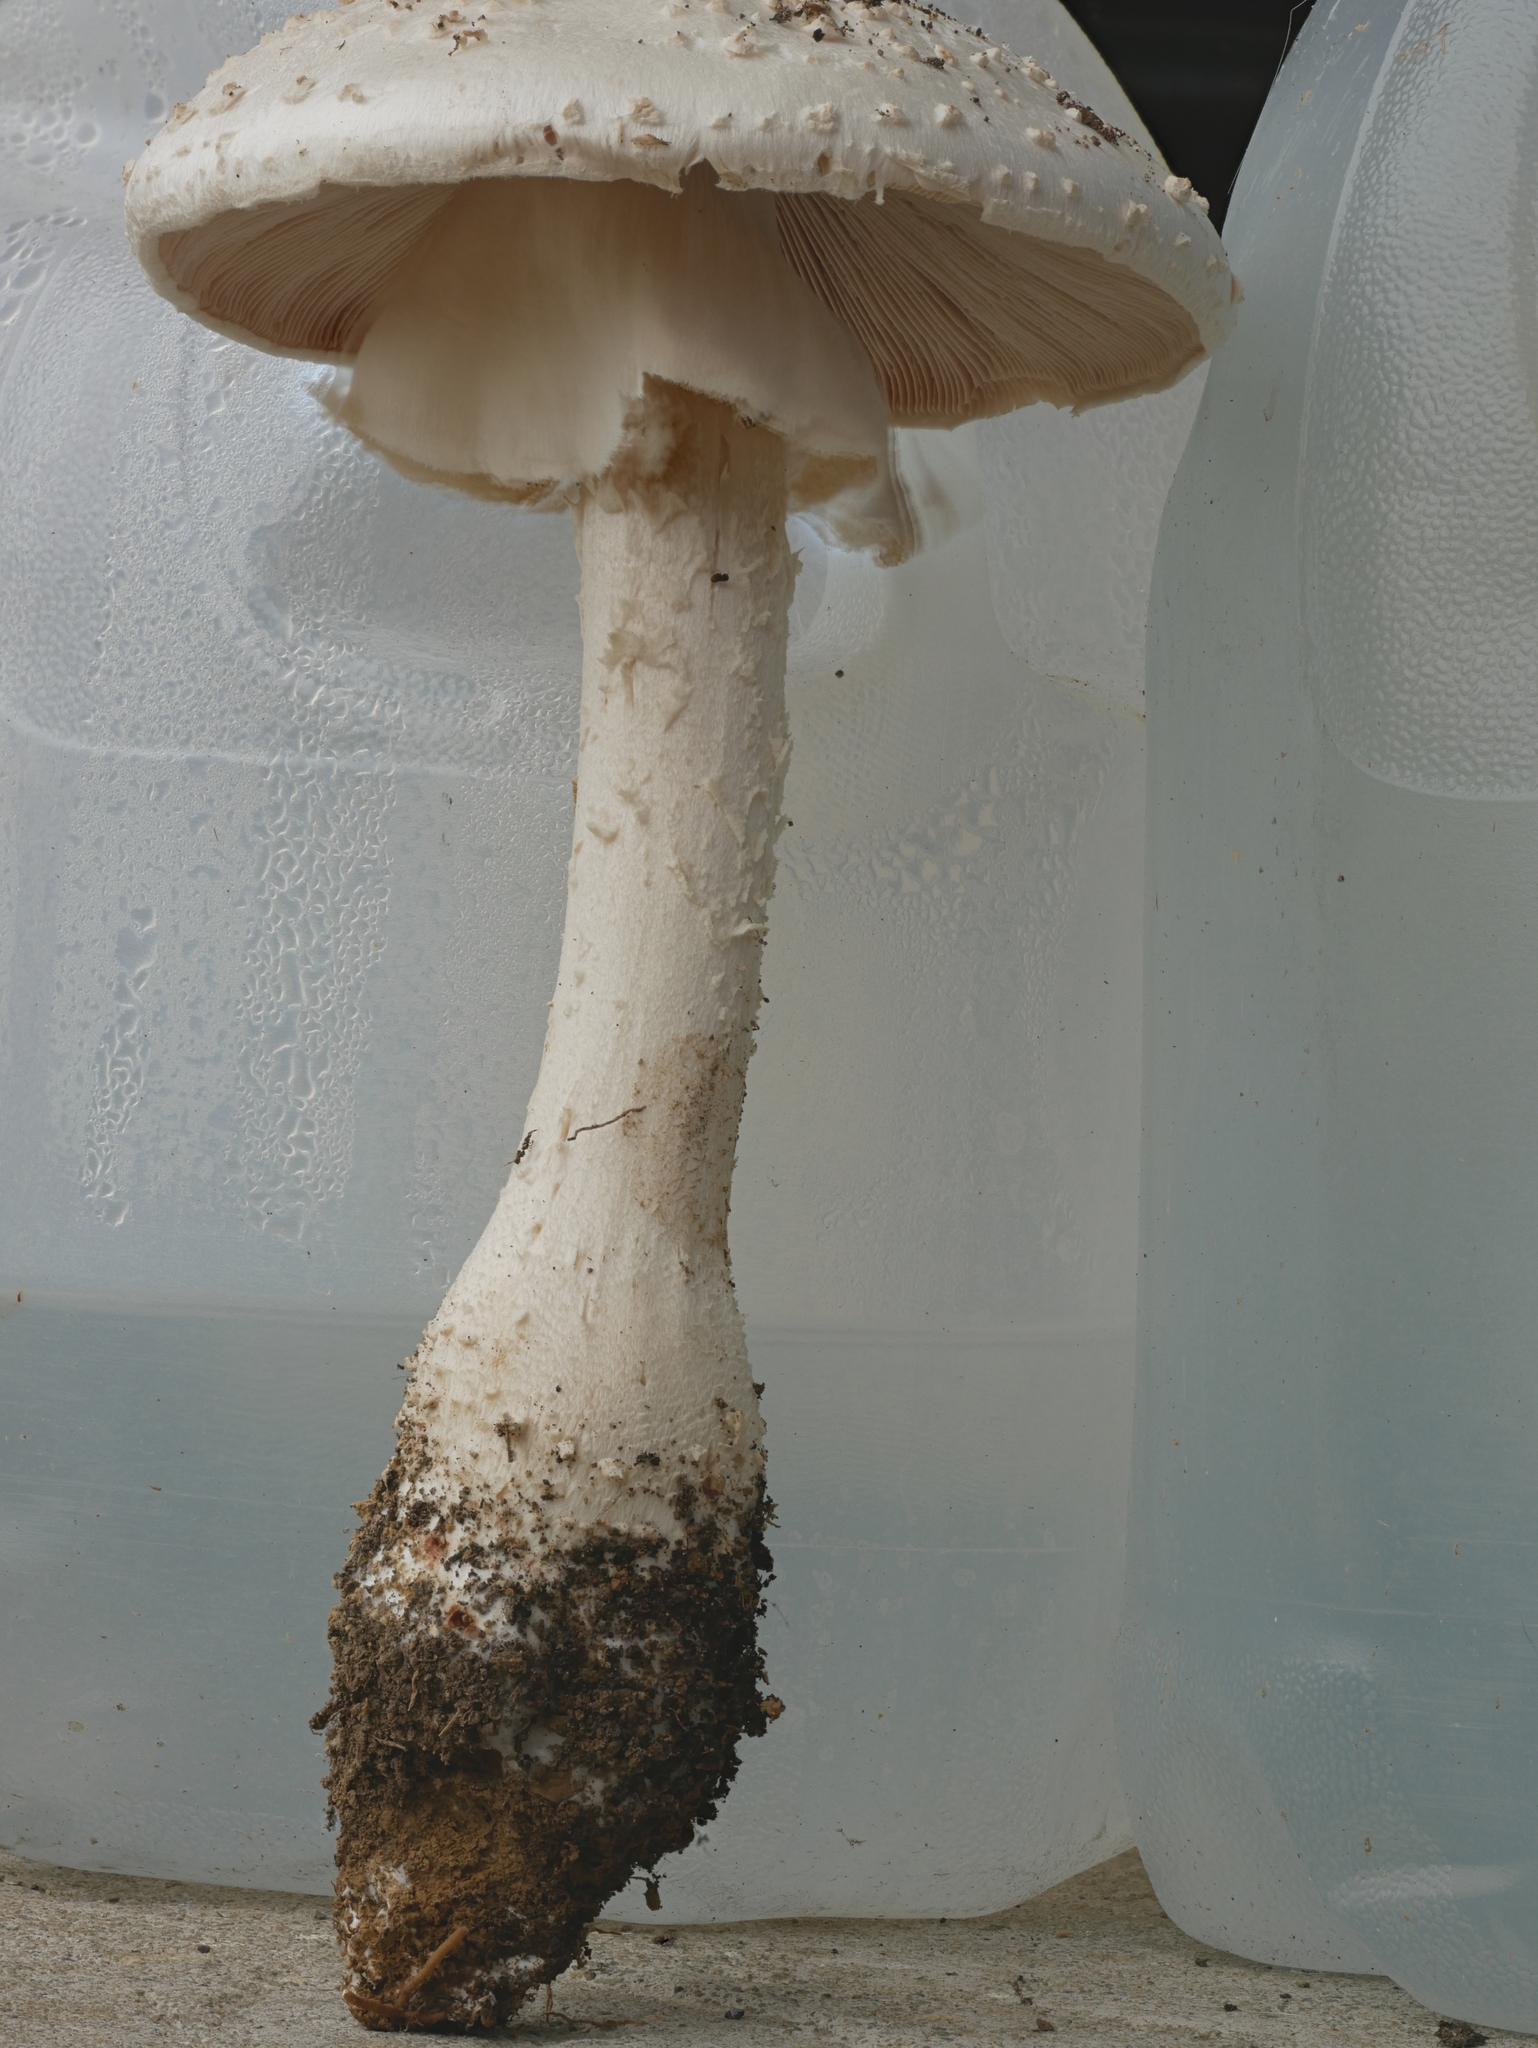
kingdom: Fungi
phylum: Basidiomycota
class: Agaricomycetes
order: Agaricales
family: Amanitaceae
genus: Amanita
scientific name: Amanita ravenelii
